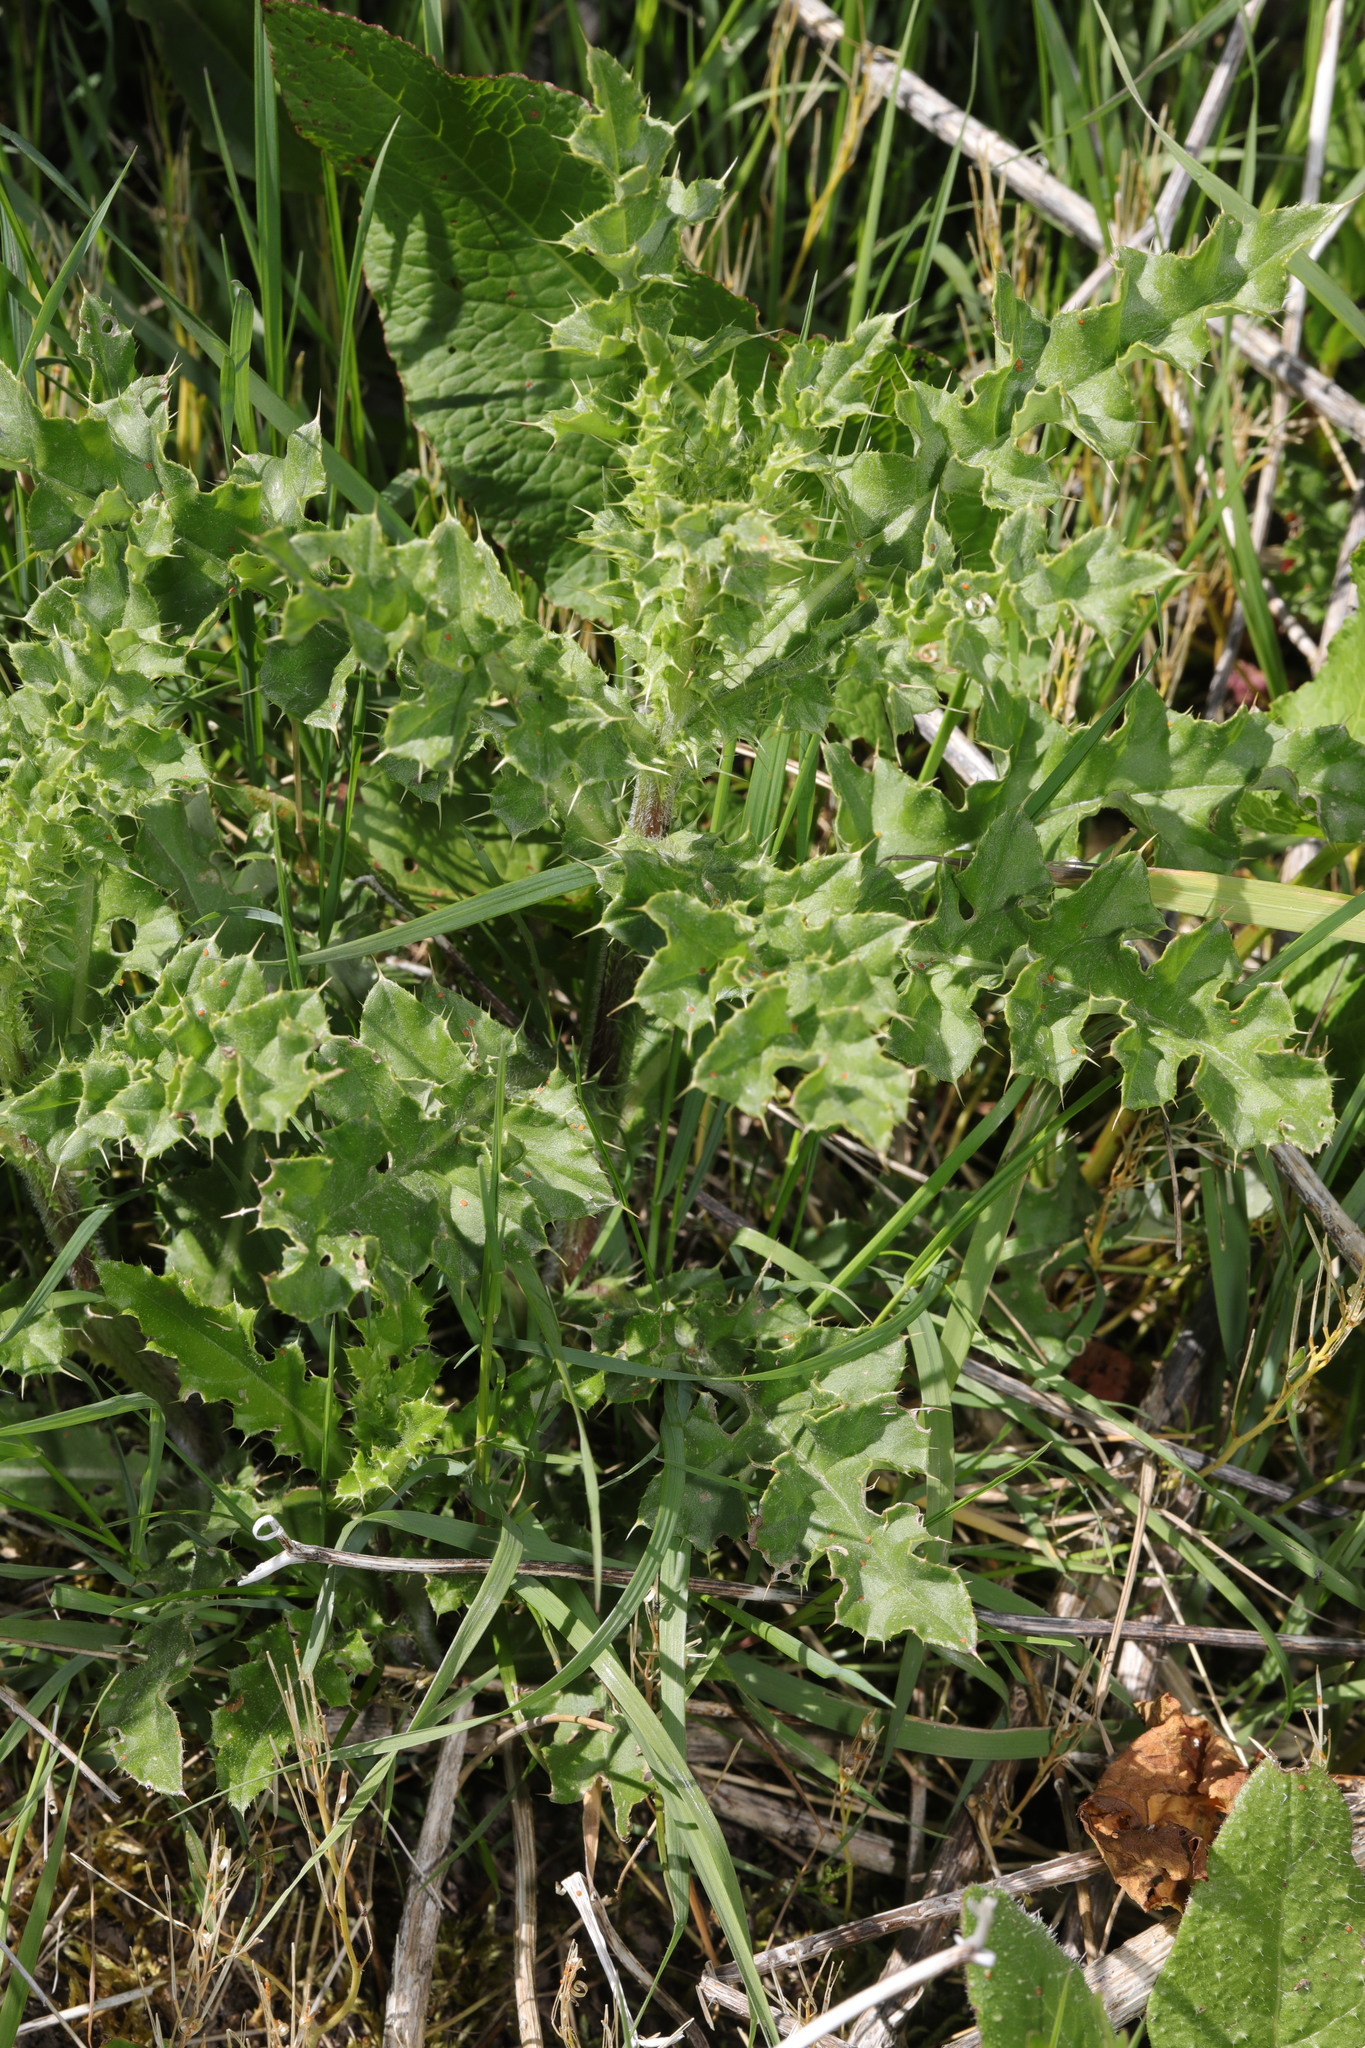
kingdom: Plantae
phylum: Tracheophyta
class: Magnoliopsida
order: Asterales
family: Asteraceae
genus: Cirsium
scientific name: Cirsium arvense
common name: Creeping thistle
